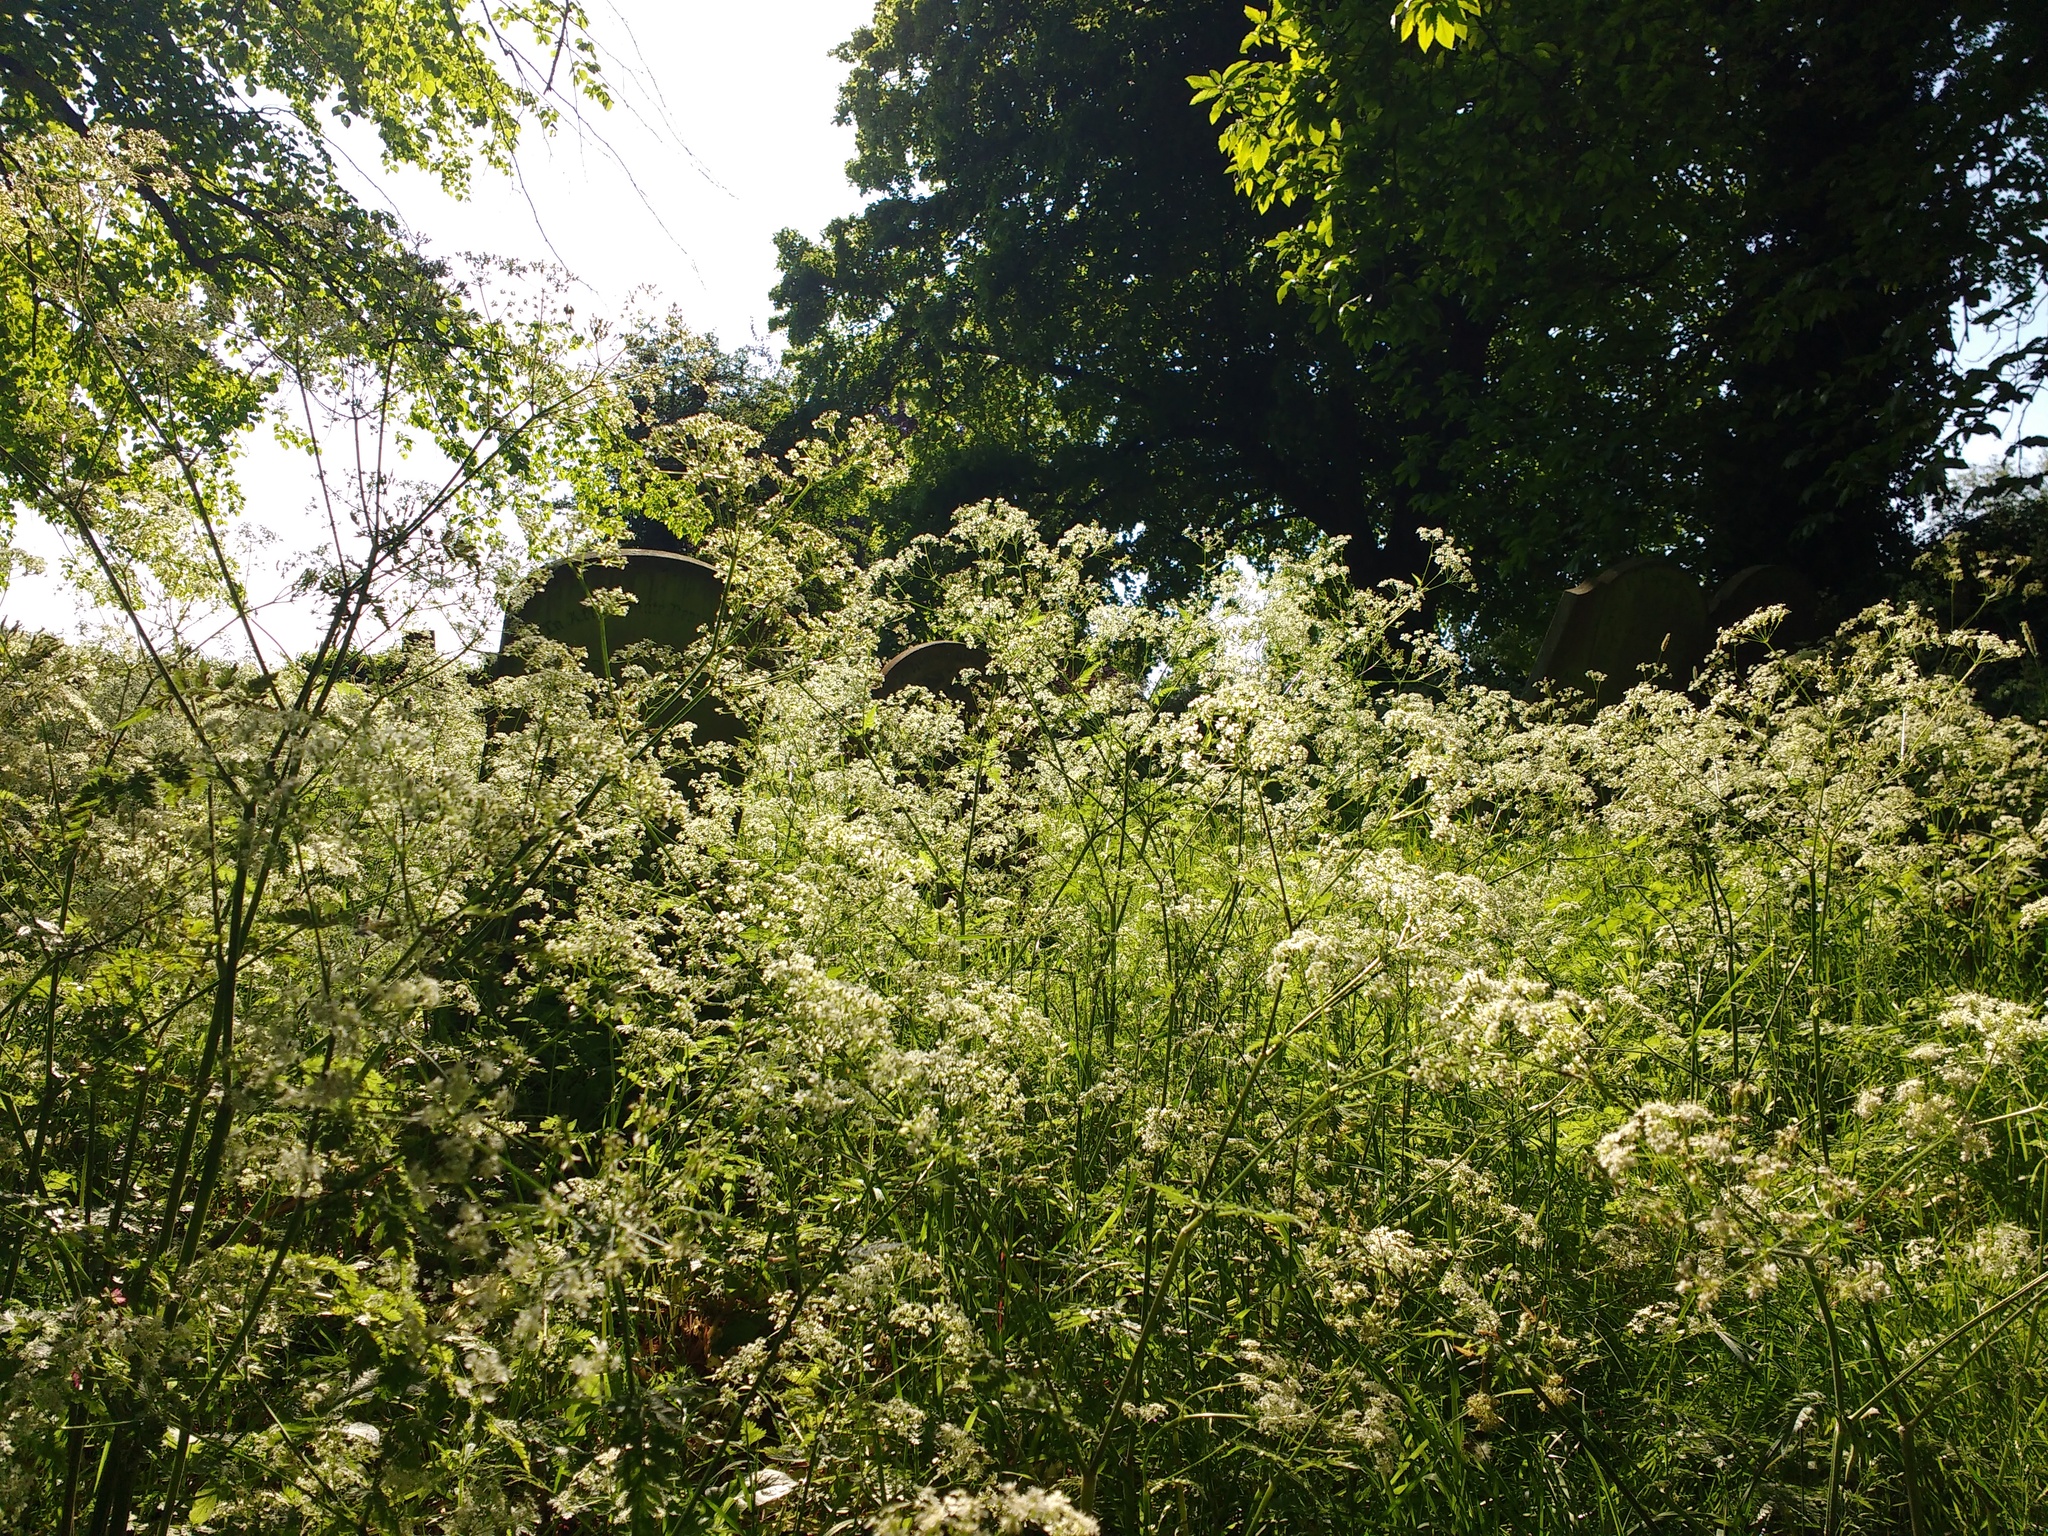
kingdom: Plantae
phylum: Tracheophyta
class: Magnoliopsida
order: Apiales
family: Apiaceae
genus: Anthriscus
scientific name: Anthriscus sylvestris
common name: Cow parsley
